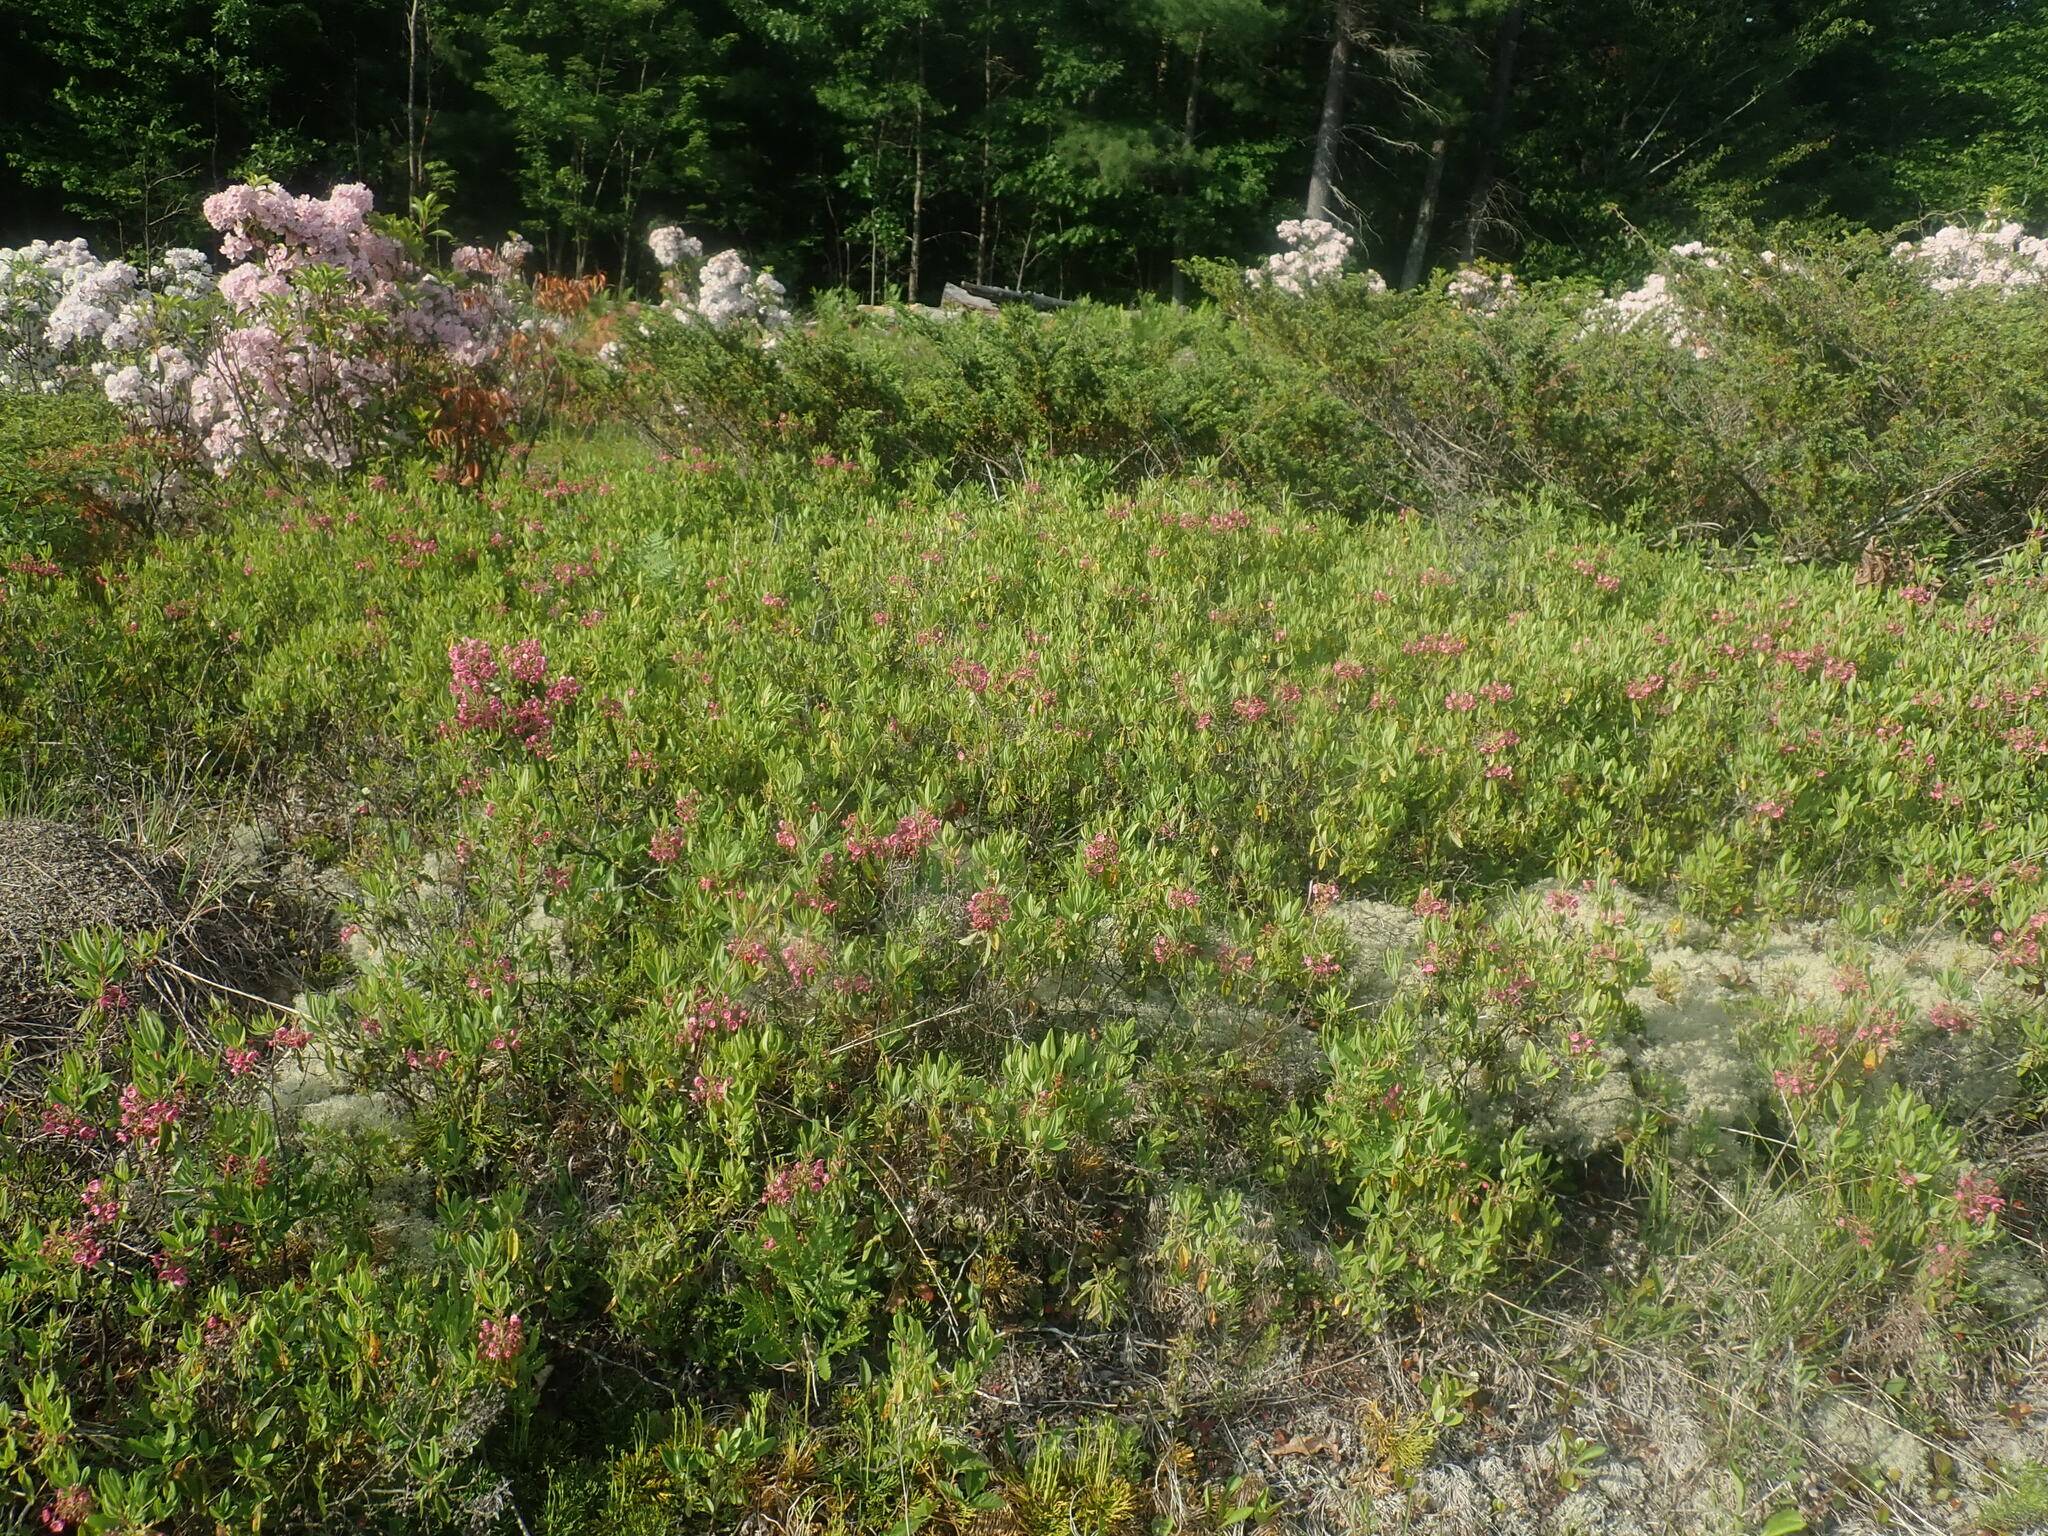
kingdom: Plantae
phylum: Tracheophyta
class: Magnoliopsida
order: Ericales
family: Ericaceae
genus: Kalmia
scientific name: Kalmia angustifolia
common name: Sheep-laurel
